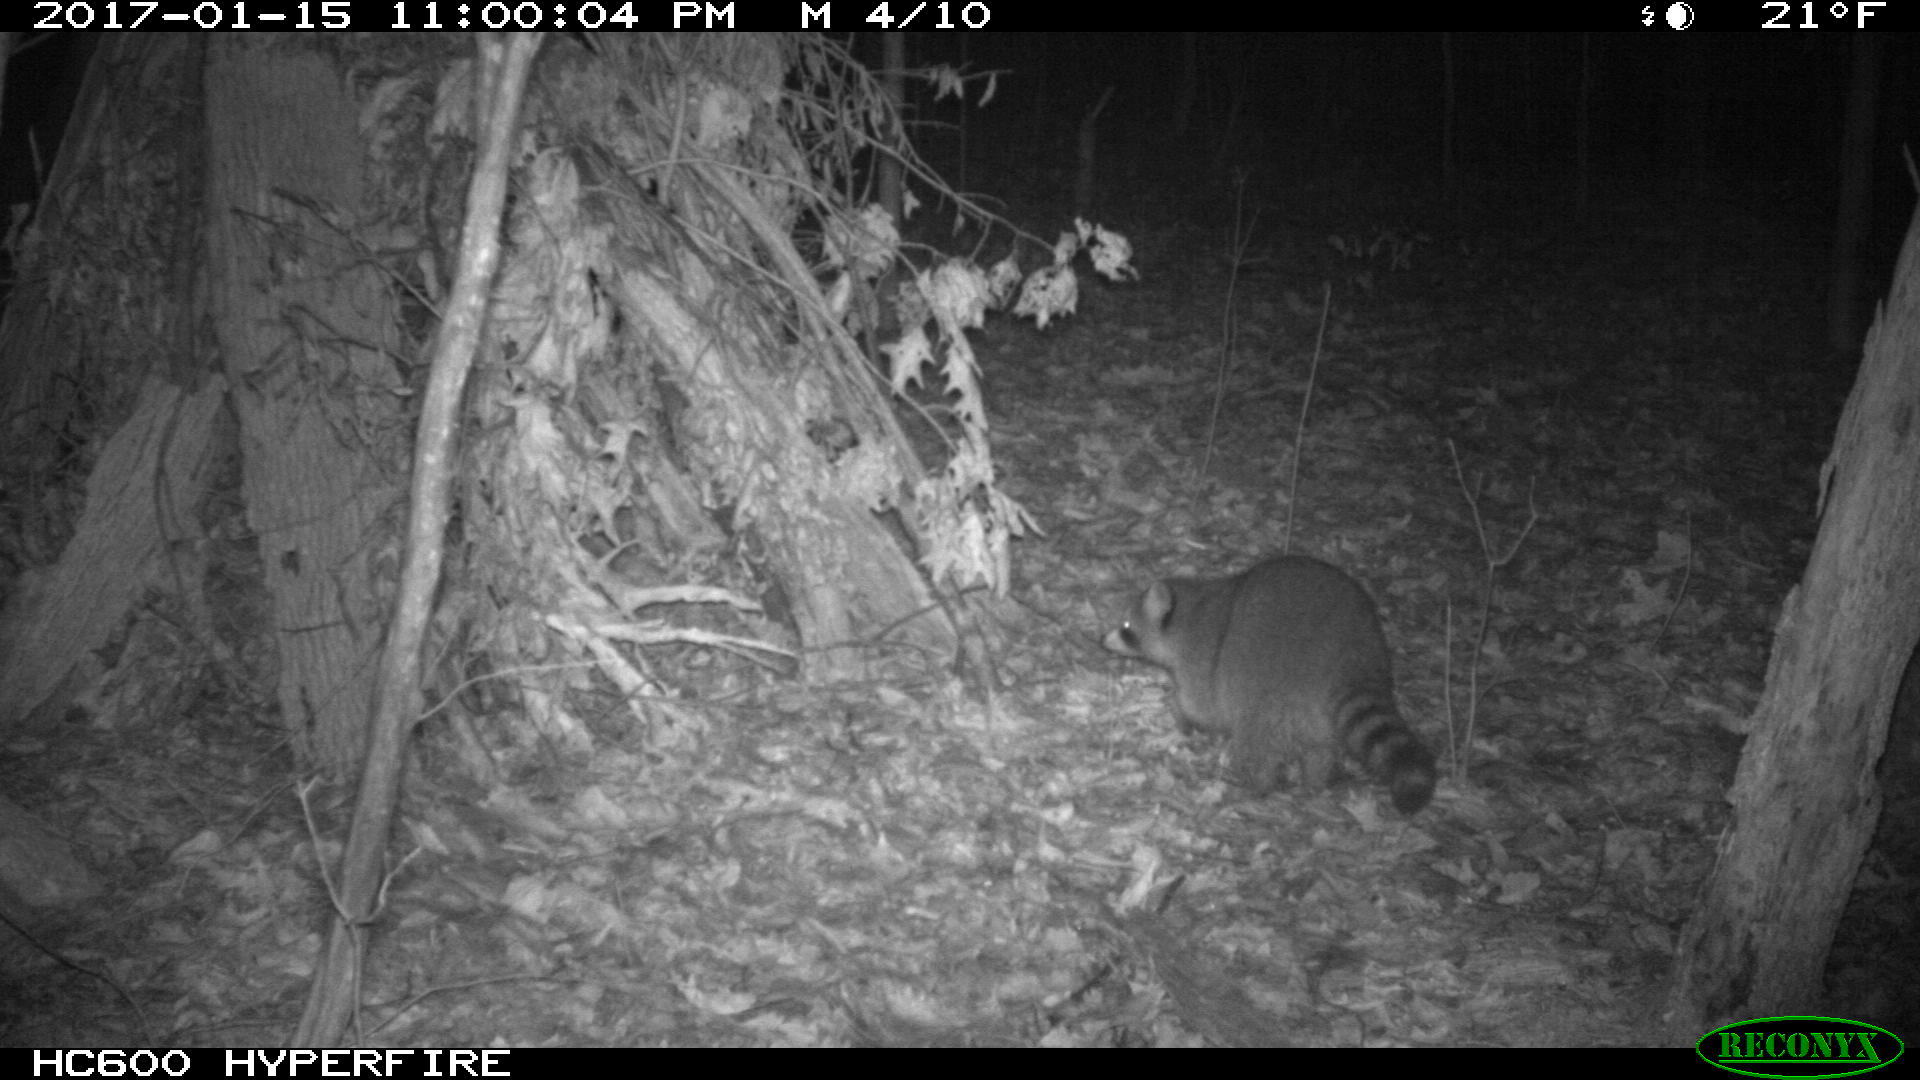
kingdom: Animalia
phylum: Chordata
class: Mammalia
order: Carnivora
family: Procyonidae
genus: Procyon
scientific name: Procyon lotor
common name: Raccoon
